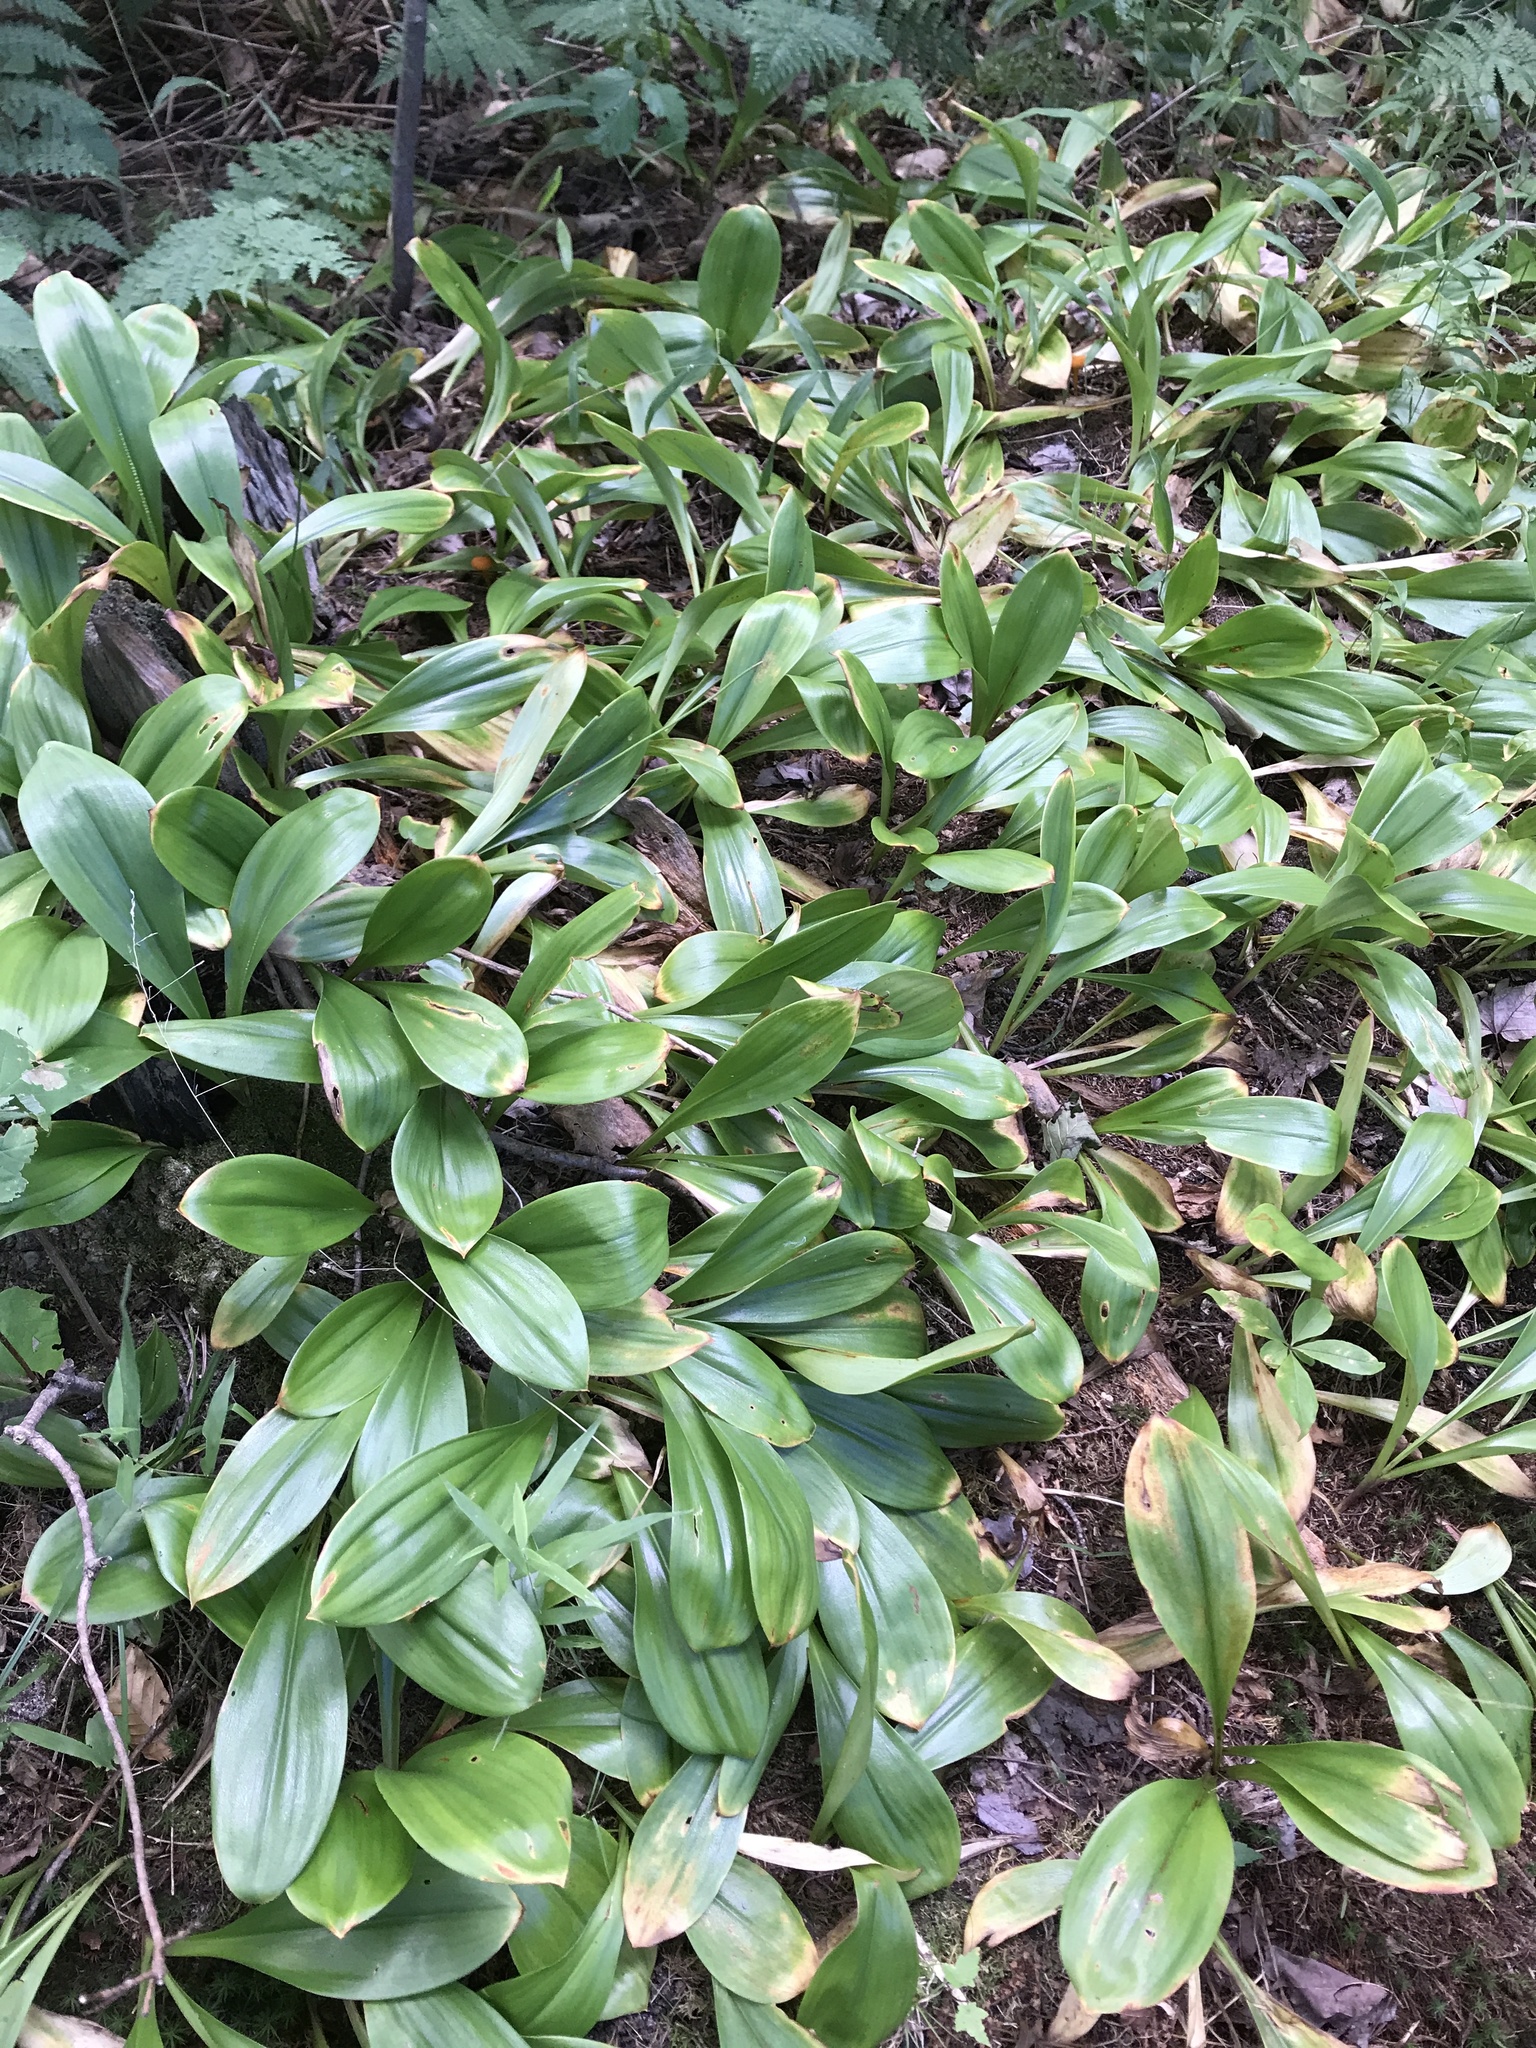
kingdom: Plantae
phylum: Tracheophyta
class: Liliopsida
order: Liliales
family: Liliaceae
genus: Clintonia
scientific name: Clintonia borealis
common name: Yellow clintonia
